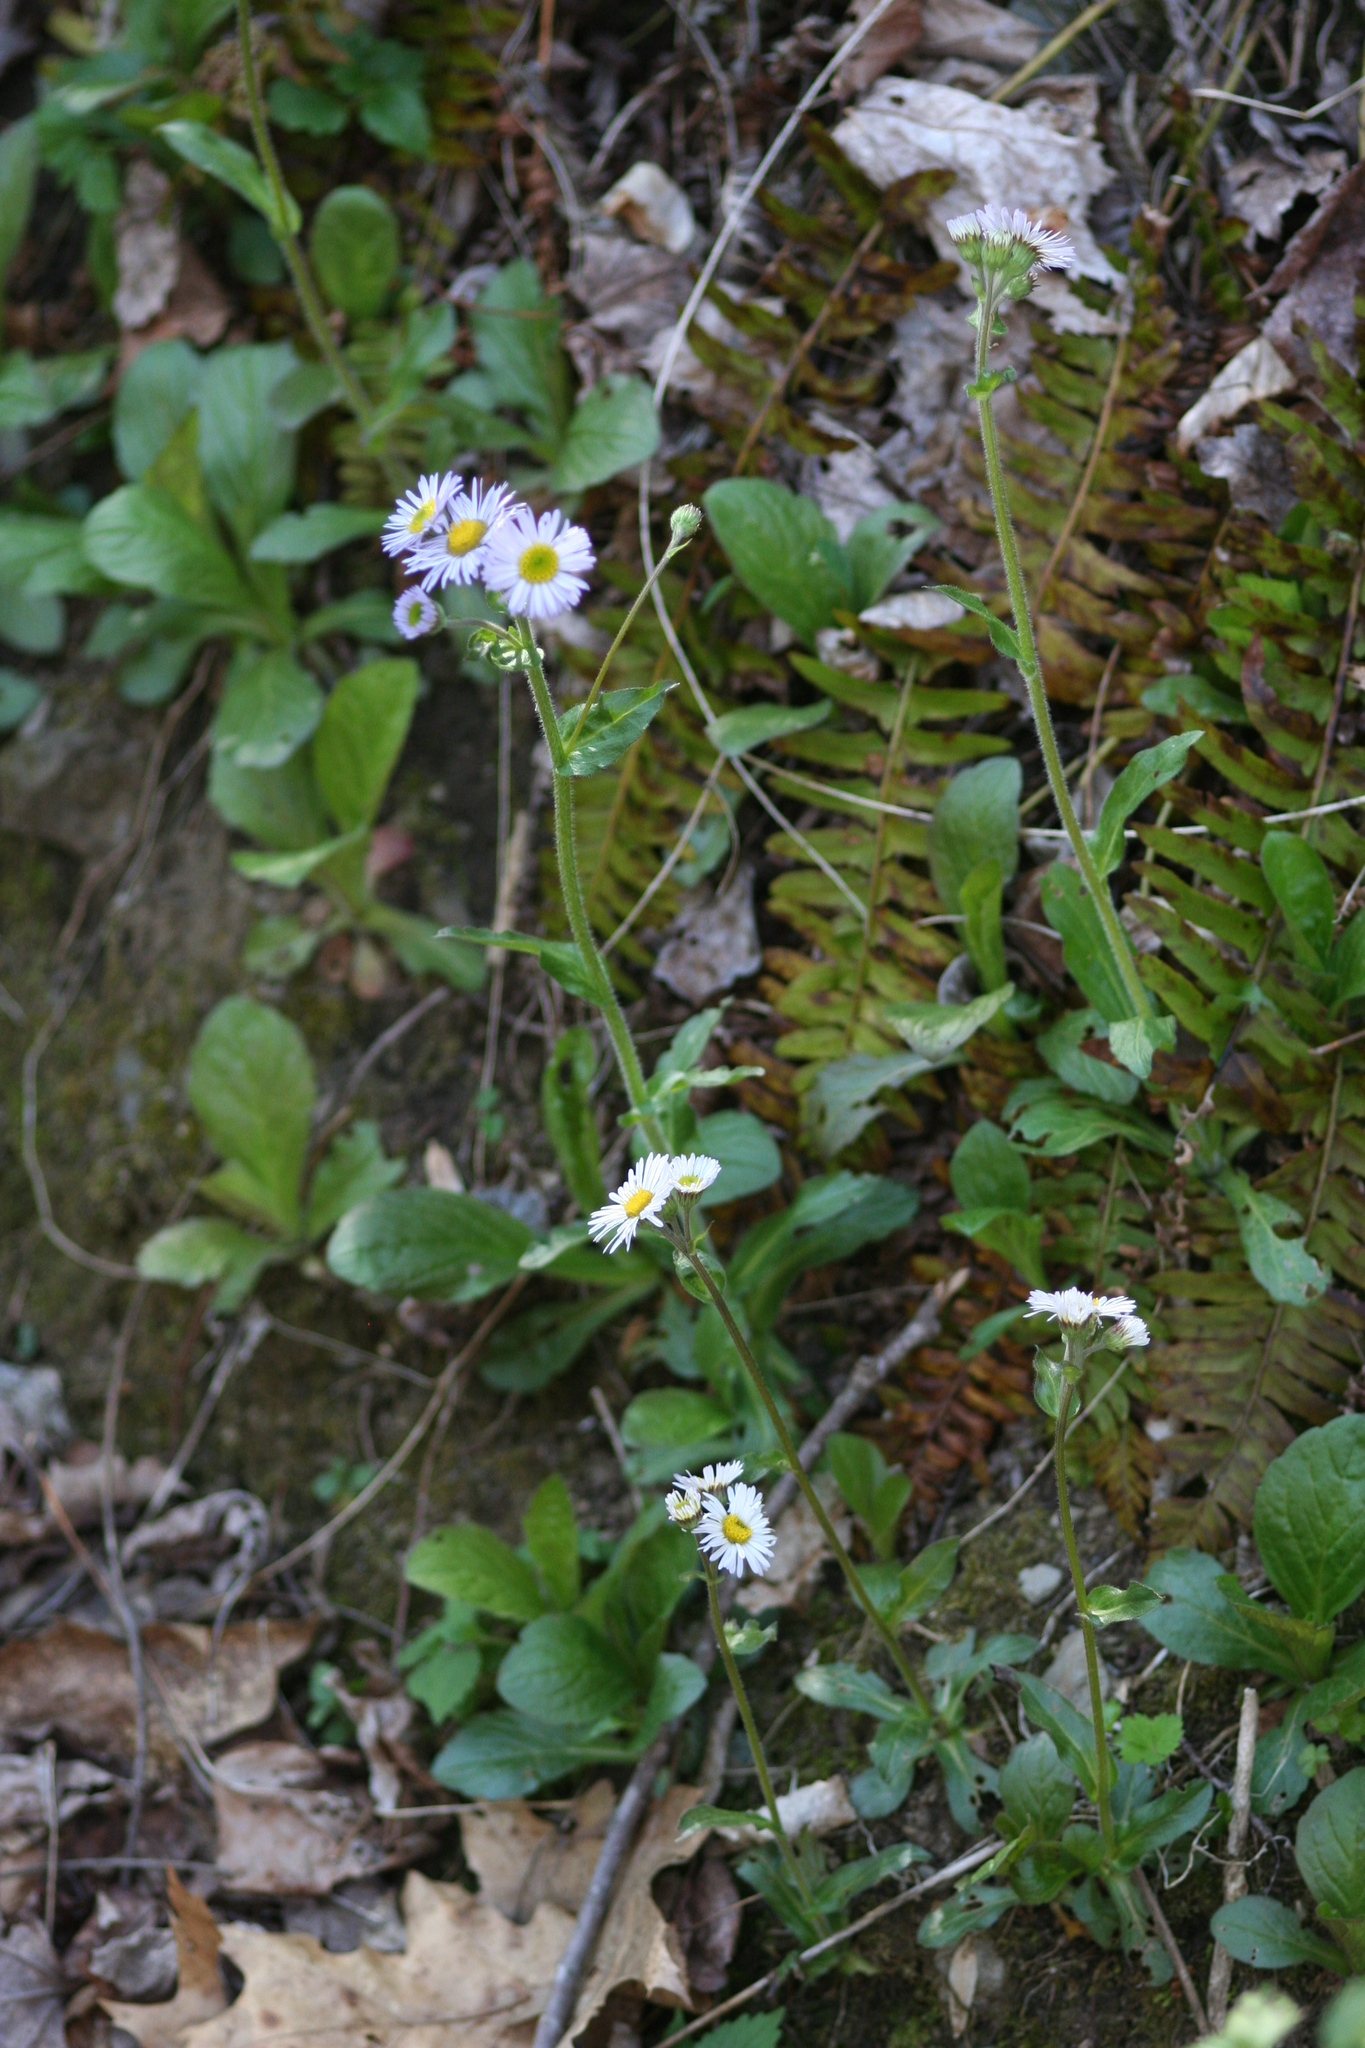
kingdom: Plantae
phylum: Tracheophyta
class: Magnoliopsida
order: Asterales
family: Asteraceae
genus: Erigeron
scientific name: Erigeron pulchellus
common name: Hairy fleabane
